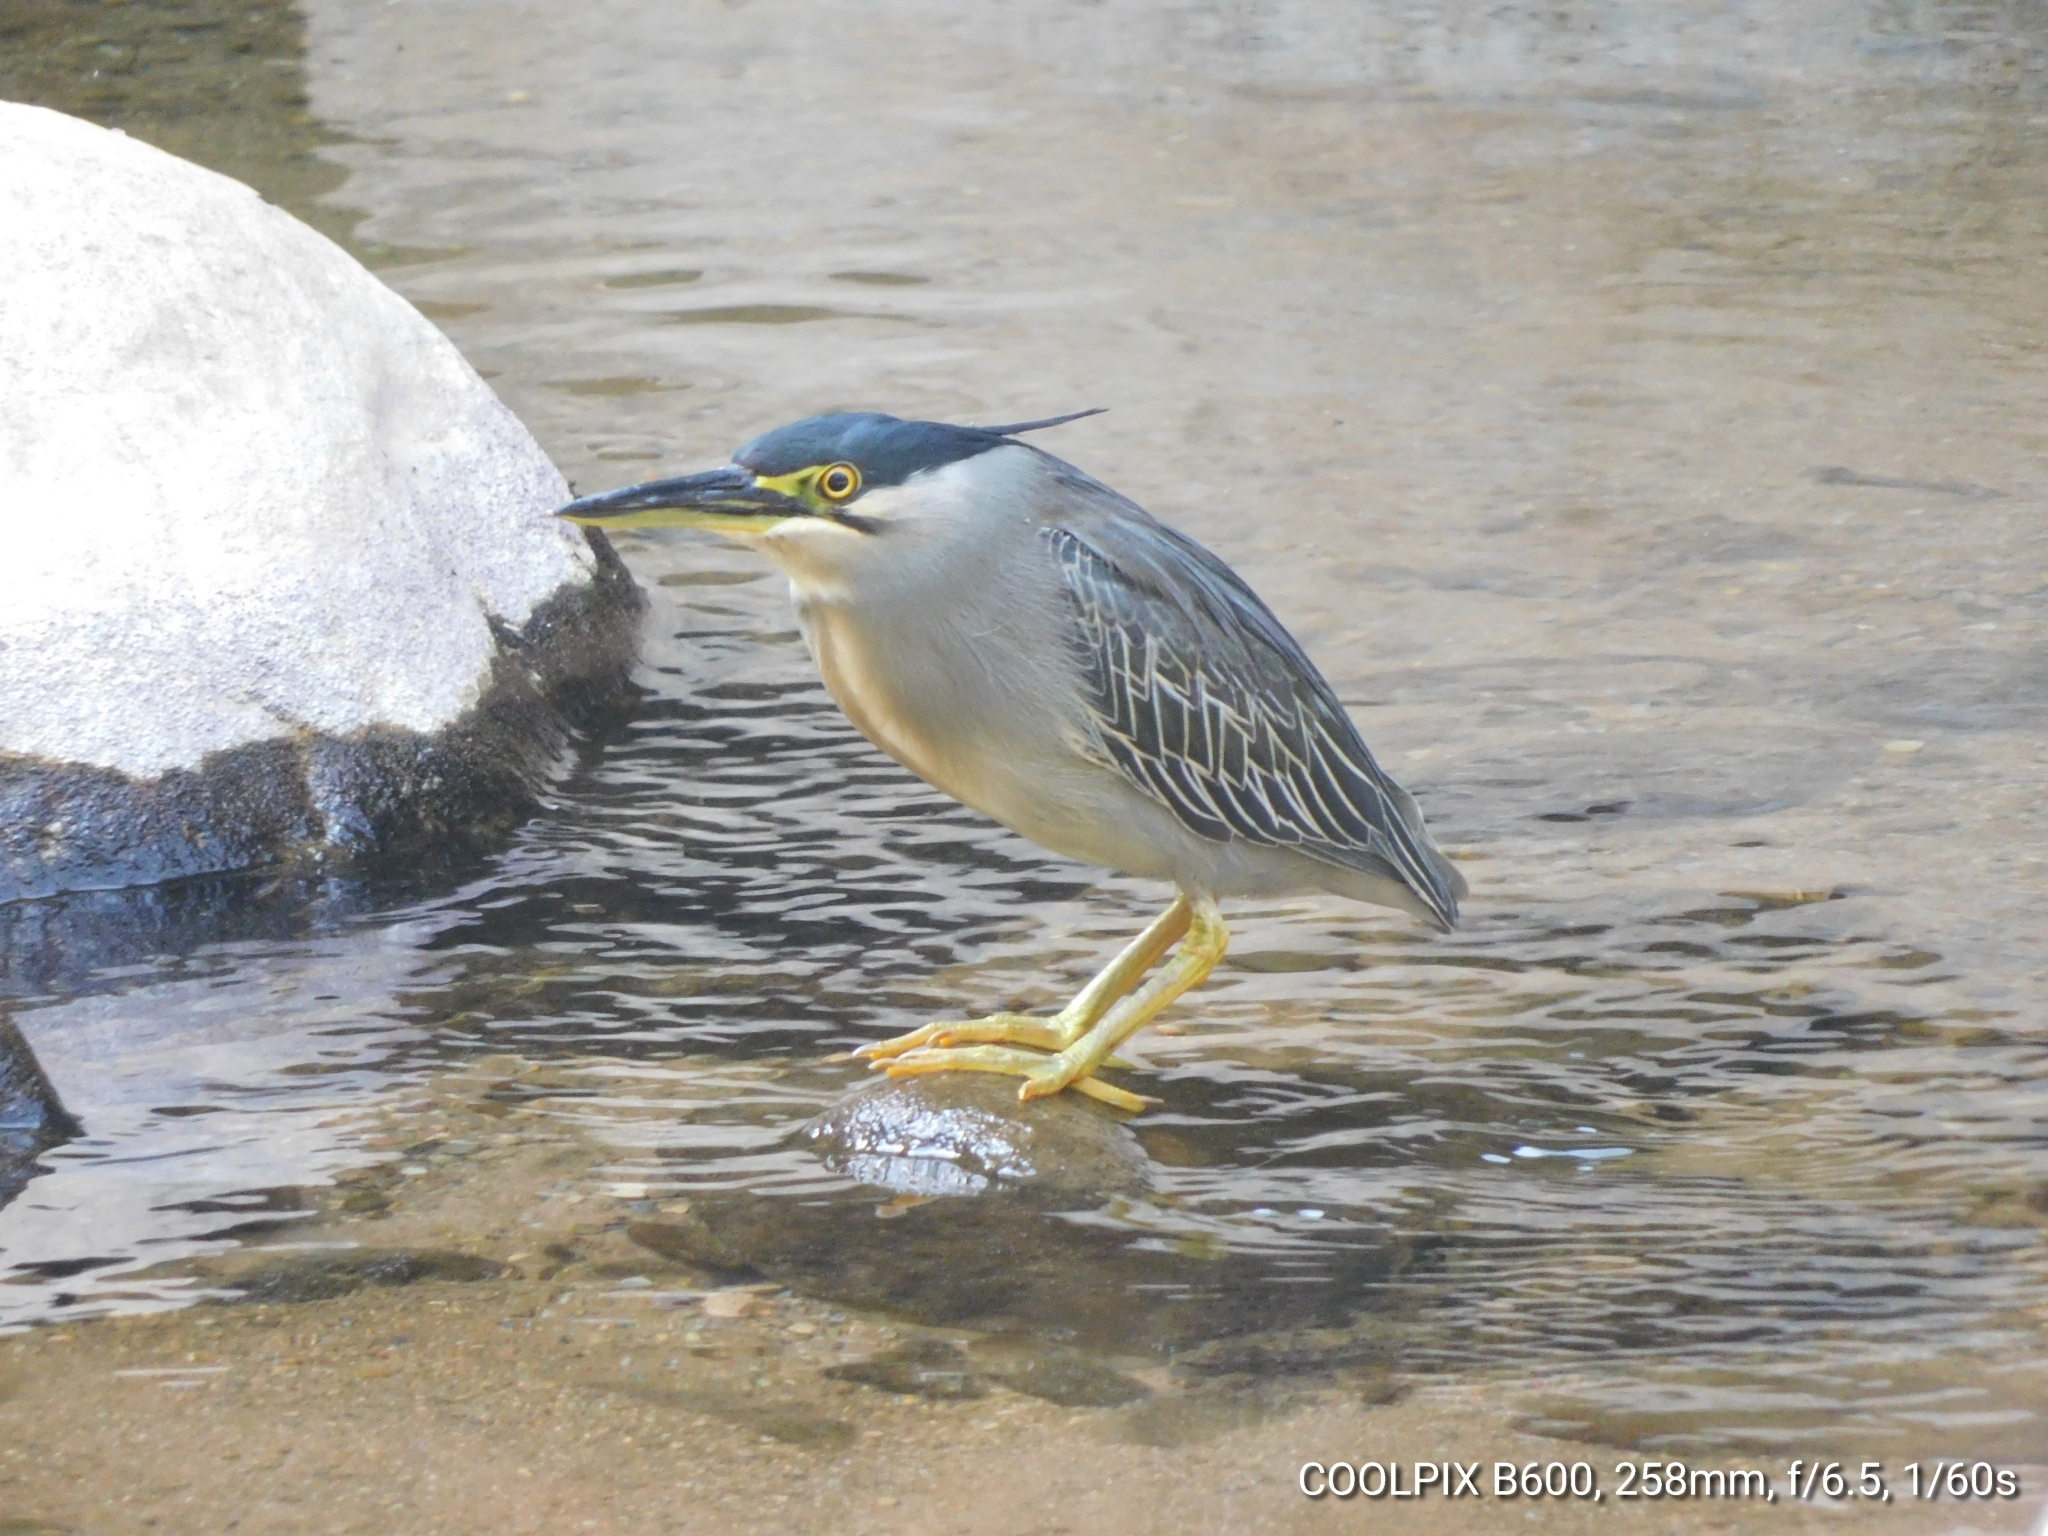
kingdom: Animalia
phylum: Chordata
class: Aves
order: Pelecaniformes
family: Ardeidae
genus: Butorides
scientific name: Butorides striata
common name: Striated heron
